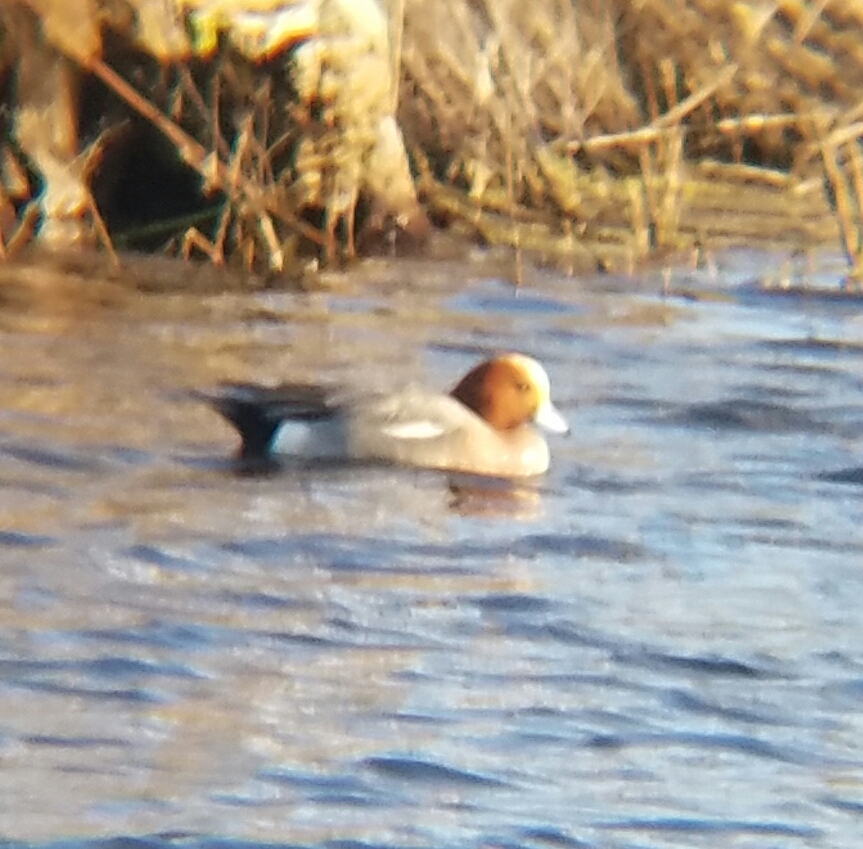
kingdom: Animalia
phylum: Chordata
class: Aves
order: Anseriformes
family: Anatidae
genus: Mareca
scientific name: Mareca penelope
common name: Eurasian wigeon
